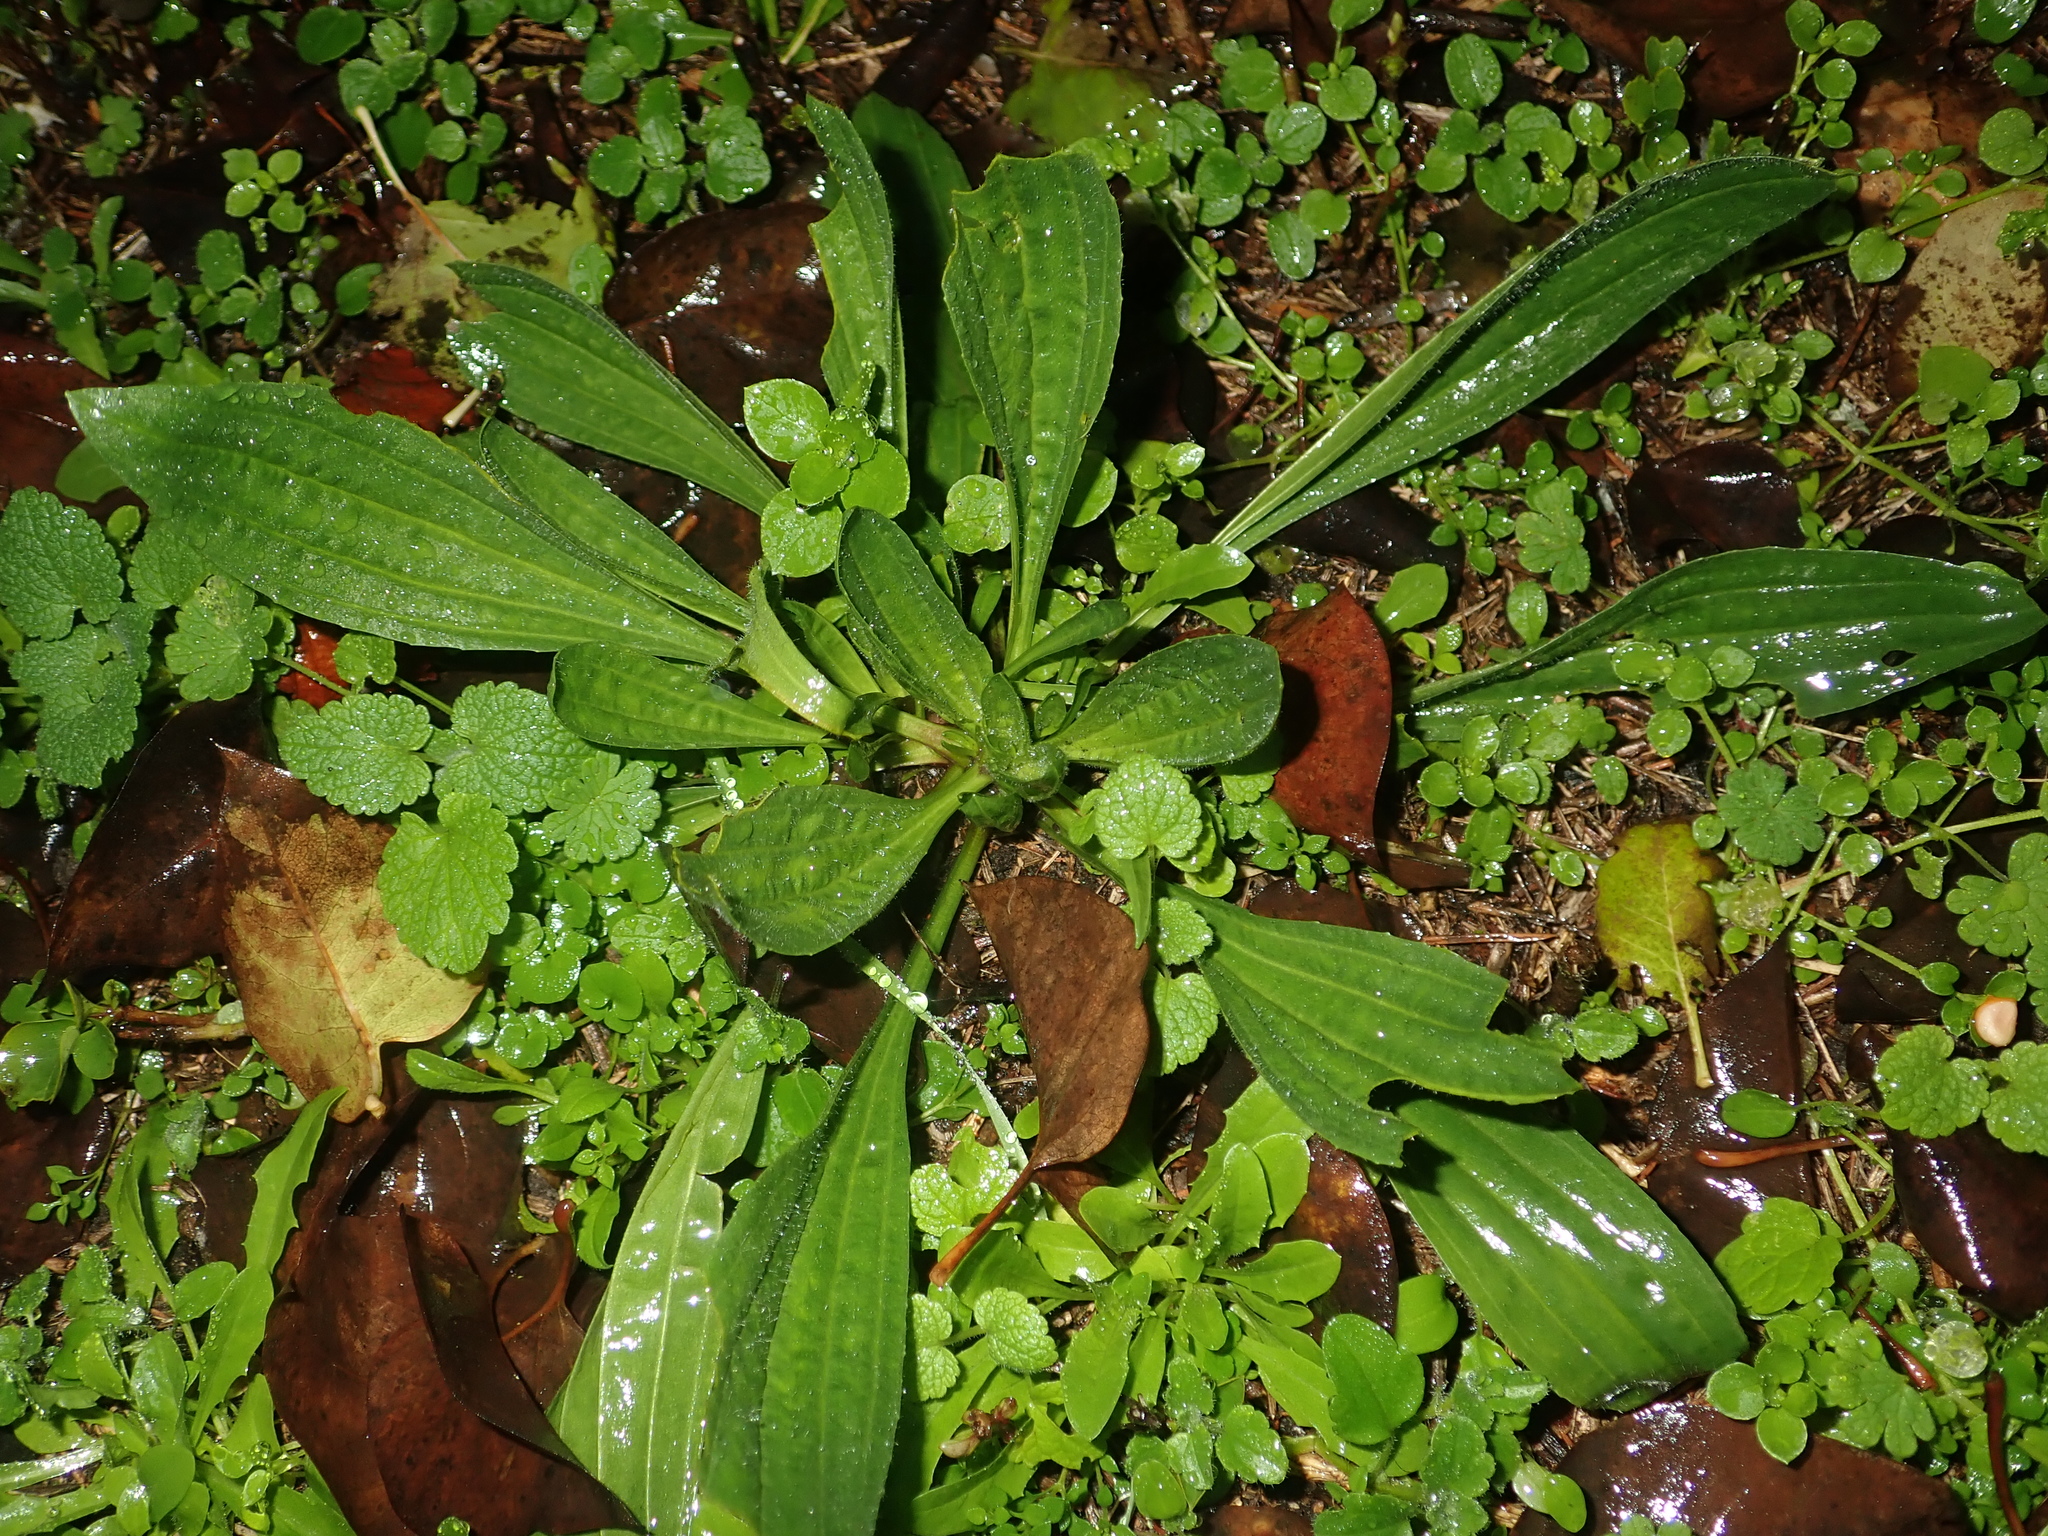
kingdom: Plantae
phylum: Tracheophyta
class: Magnoliopsida
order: Lamiales
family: Plantaginaceae
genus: Plantago
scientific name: Plantago lanceolata
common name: Ribwort plantain
